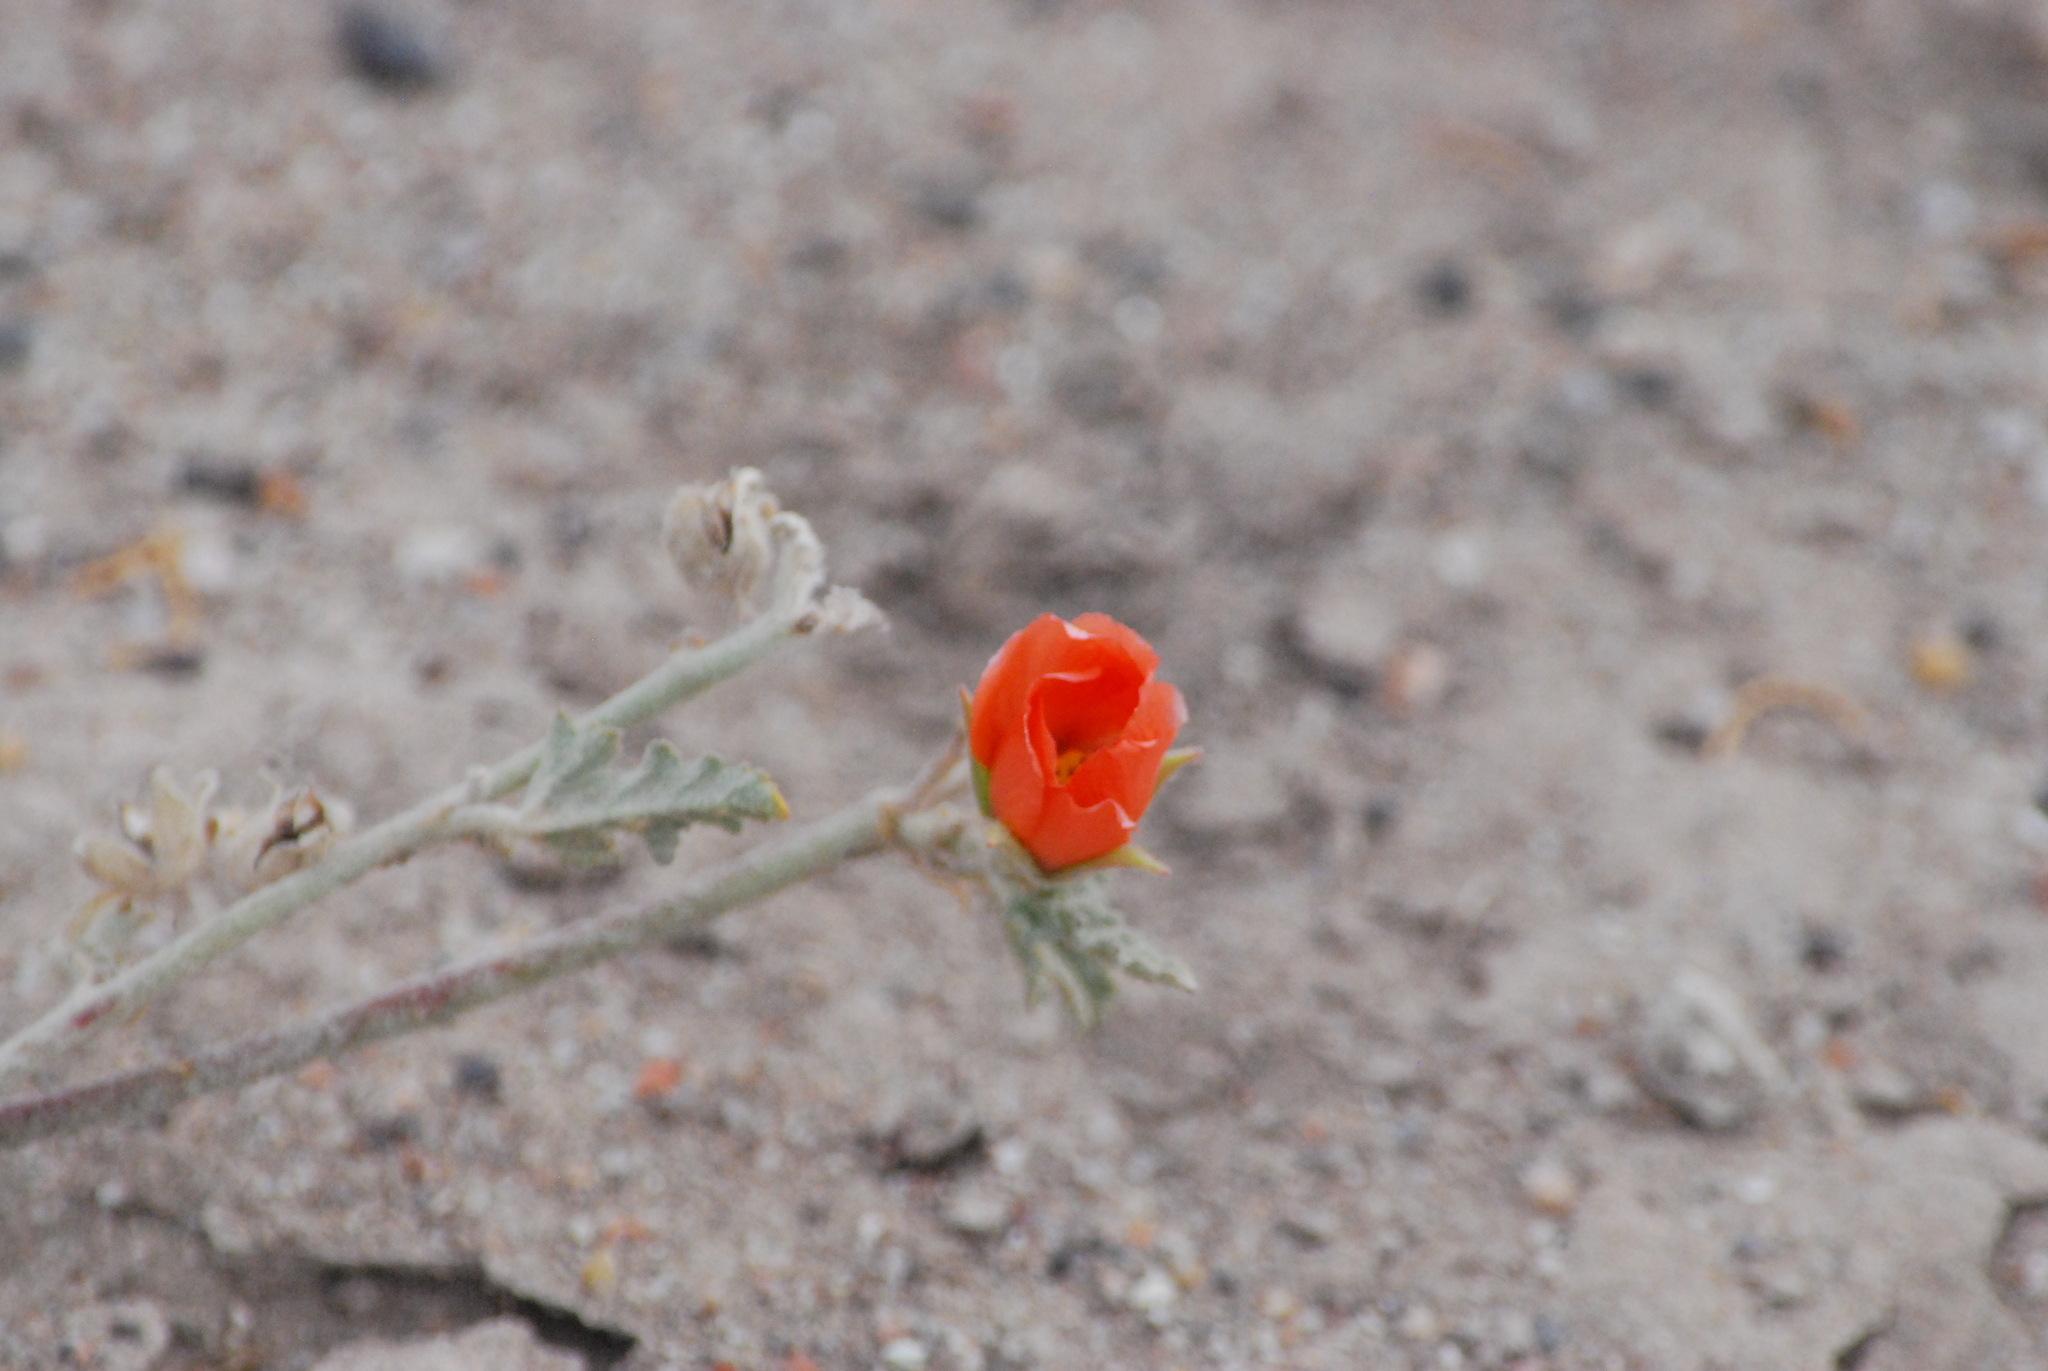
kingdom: Plantae
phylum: Tracheophyta
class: Magnoliopsida
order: Malvales
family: Malvaceae
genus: Sphaeralcea
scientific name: Sphaeralcea miniata
